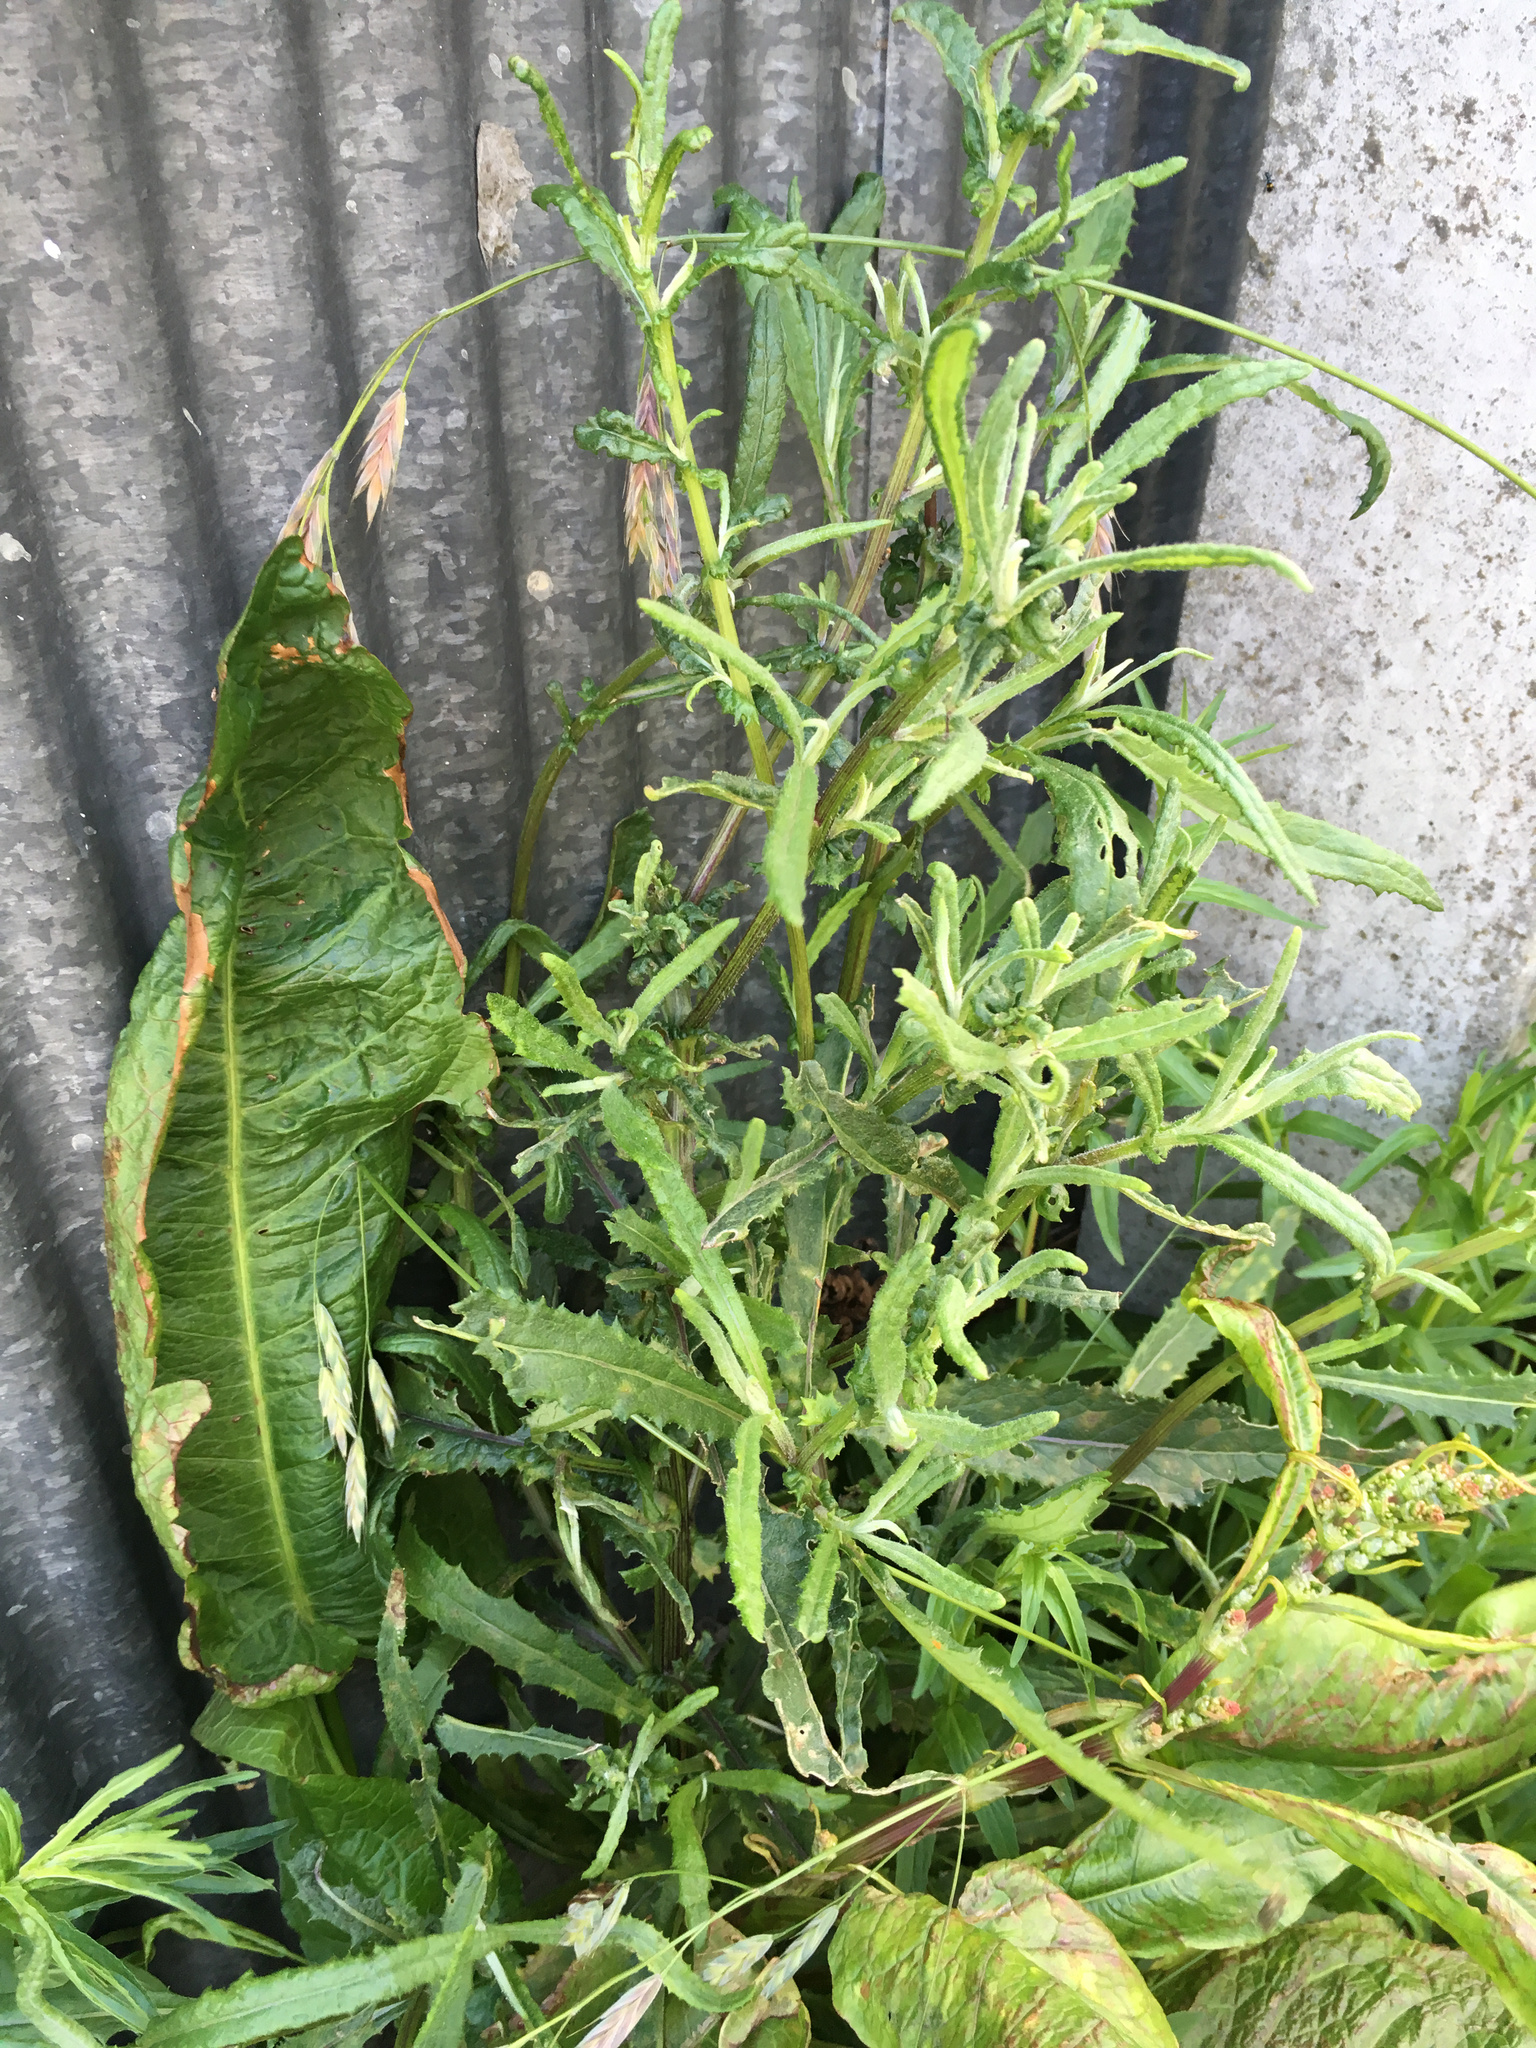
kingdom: Plantae
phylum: Tracheophyta
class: Magnoliopsida
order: Asterales
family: Asteraceae
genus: Senecio
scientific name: Senecio minimus
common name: Toothed fireweed
